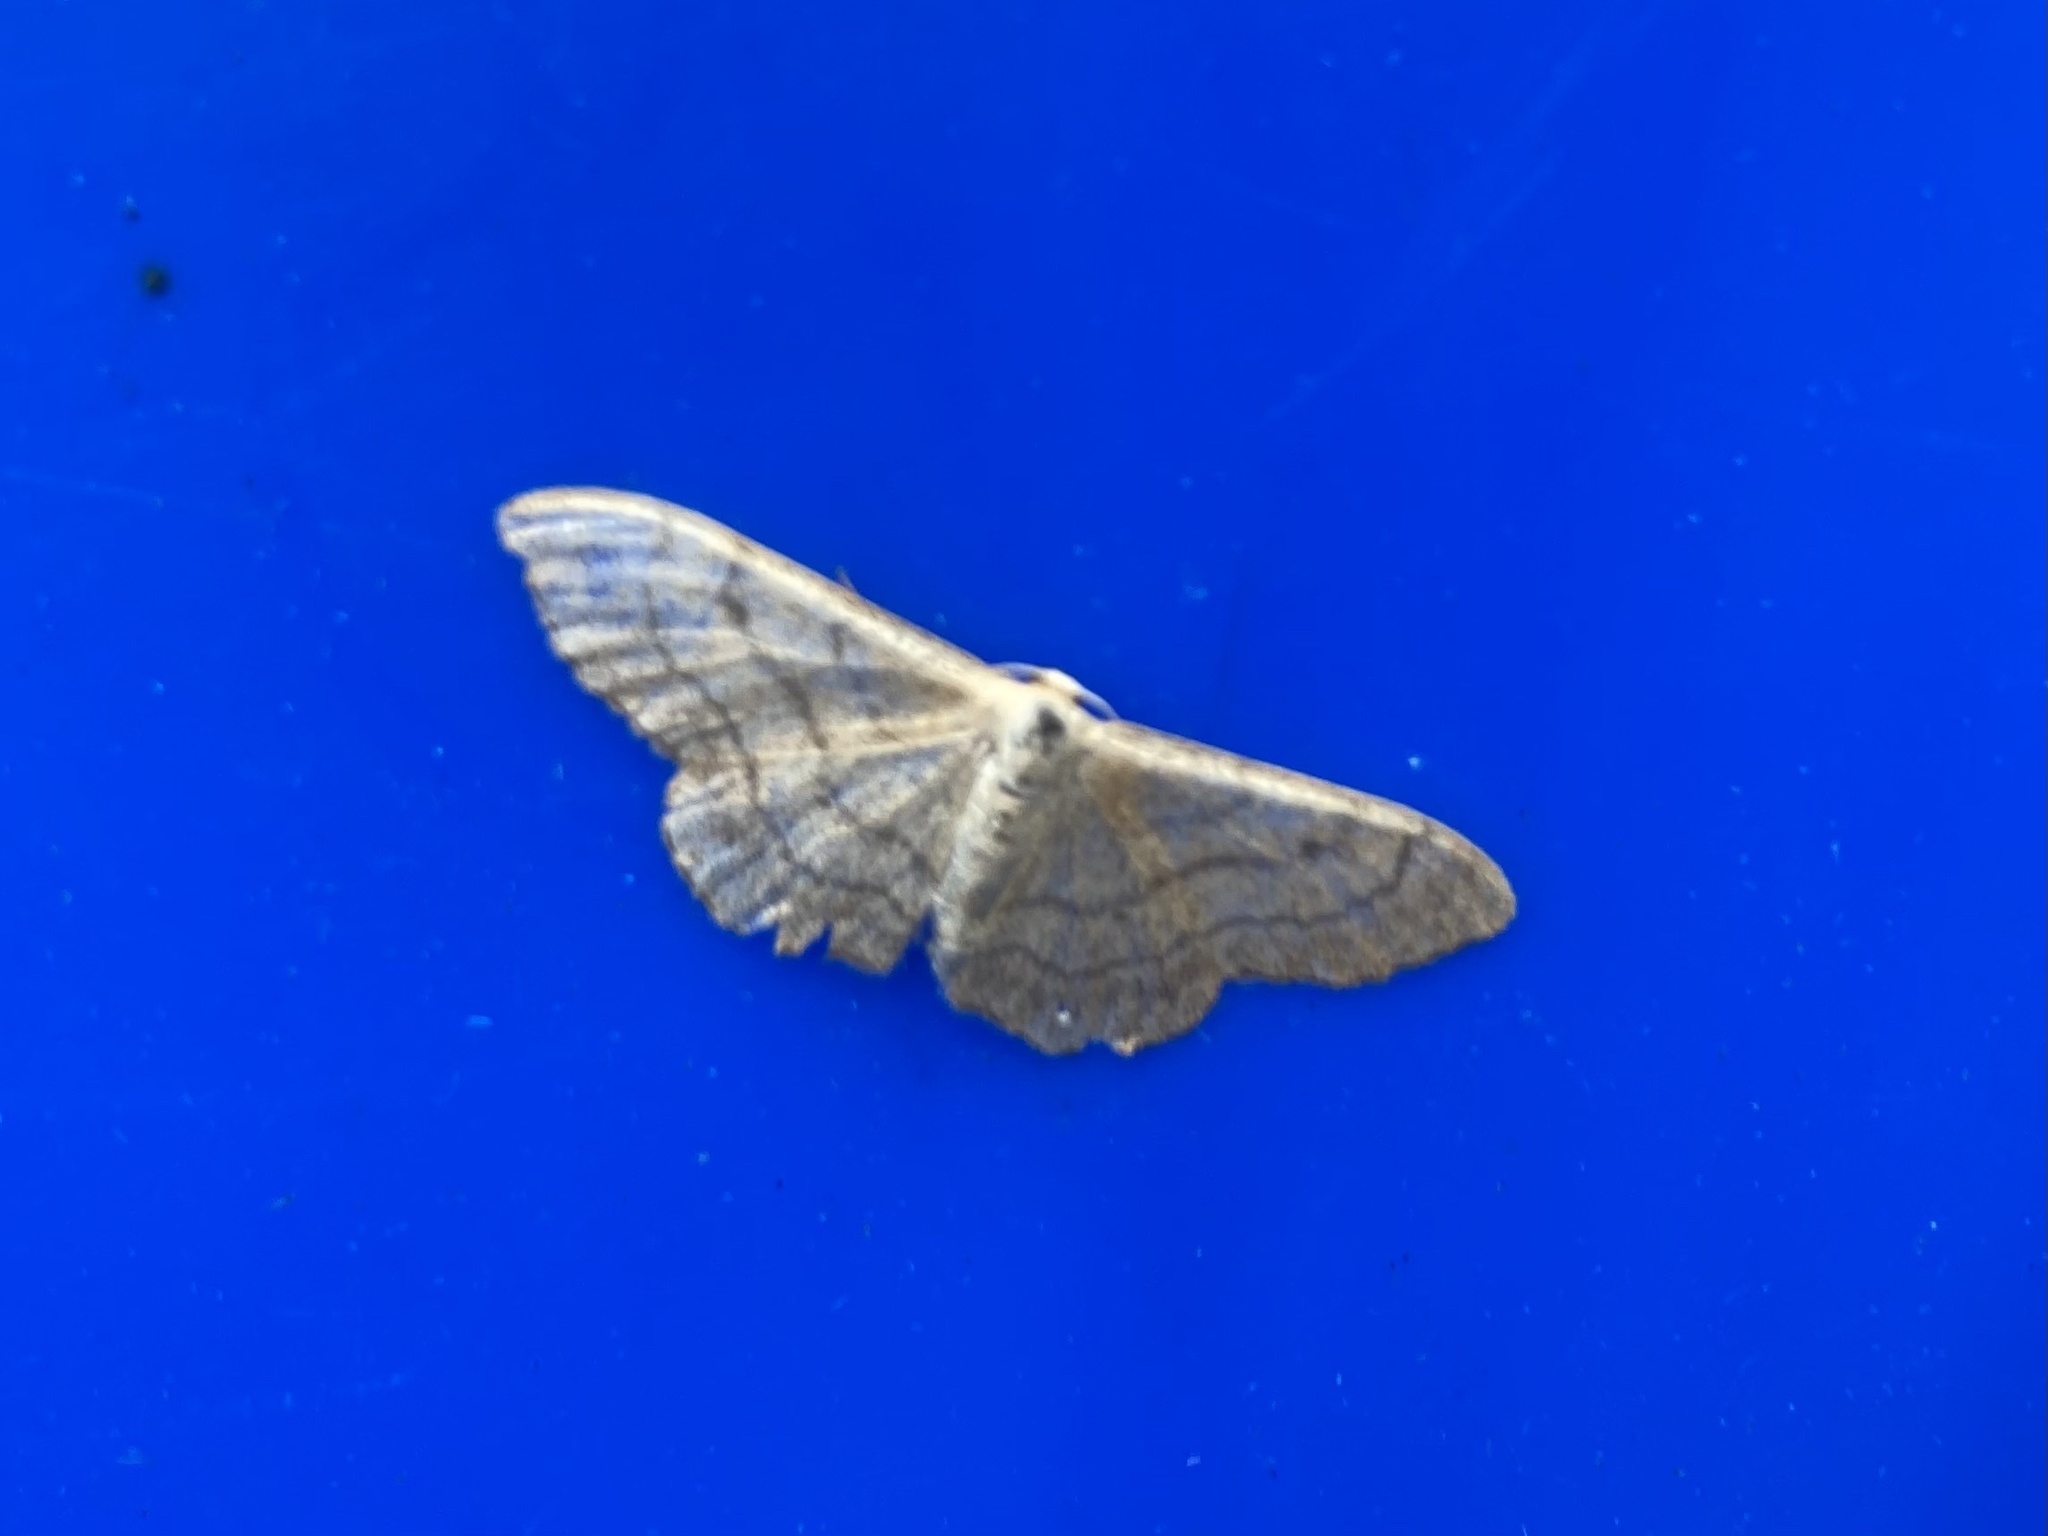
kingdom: Animalia
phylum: Arthropoda
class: Insecta
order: Lepidoptera
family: Geometridae
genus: Idaea
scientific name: Idaea aversata
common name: Riband wave
